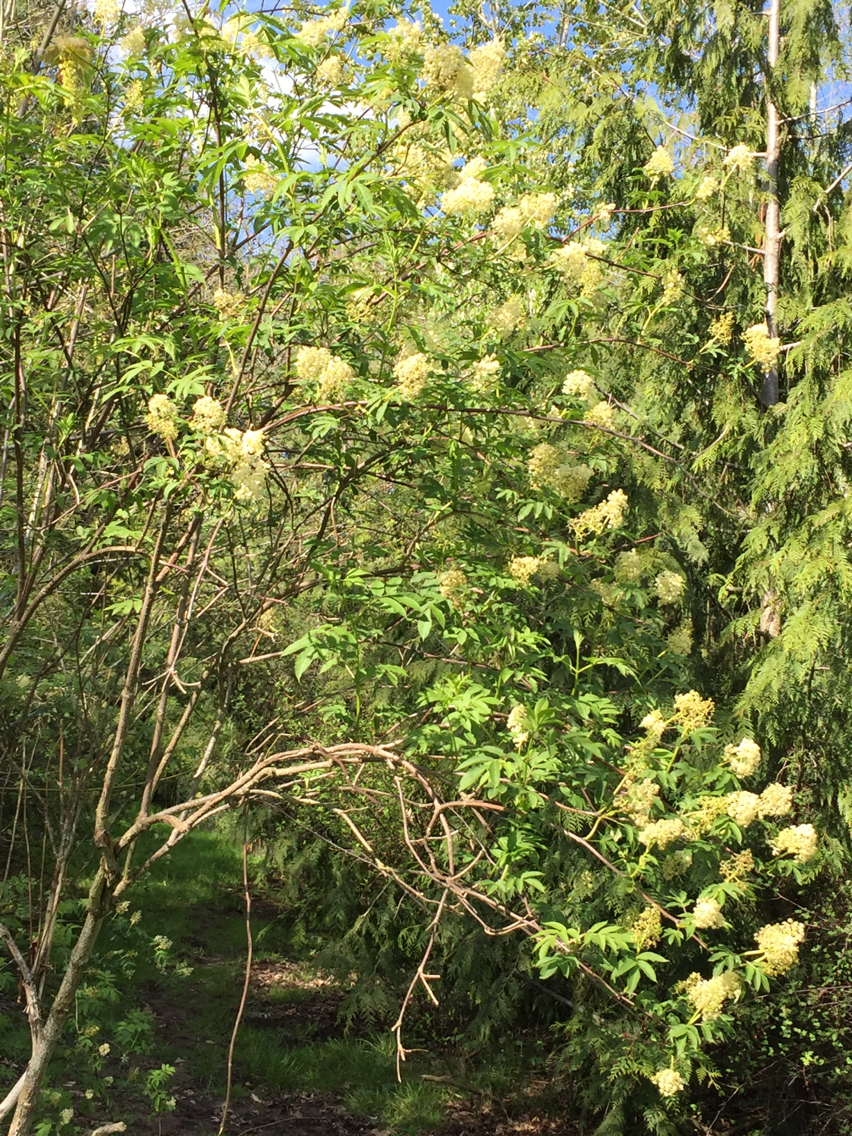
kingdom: Plantae
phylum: Tracheophyta
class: Magnoliopsida
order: Dipsacales
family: Viburnaceae
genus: Sambucus
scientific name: Sambucus racemosa
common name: Red-berried elder
